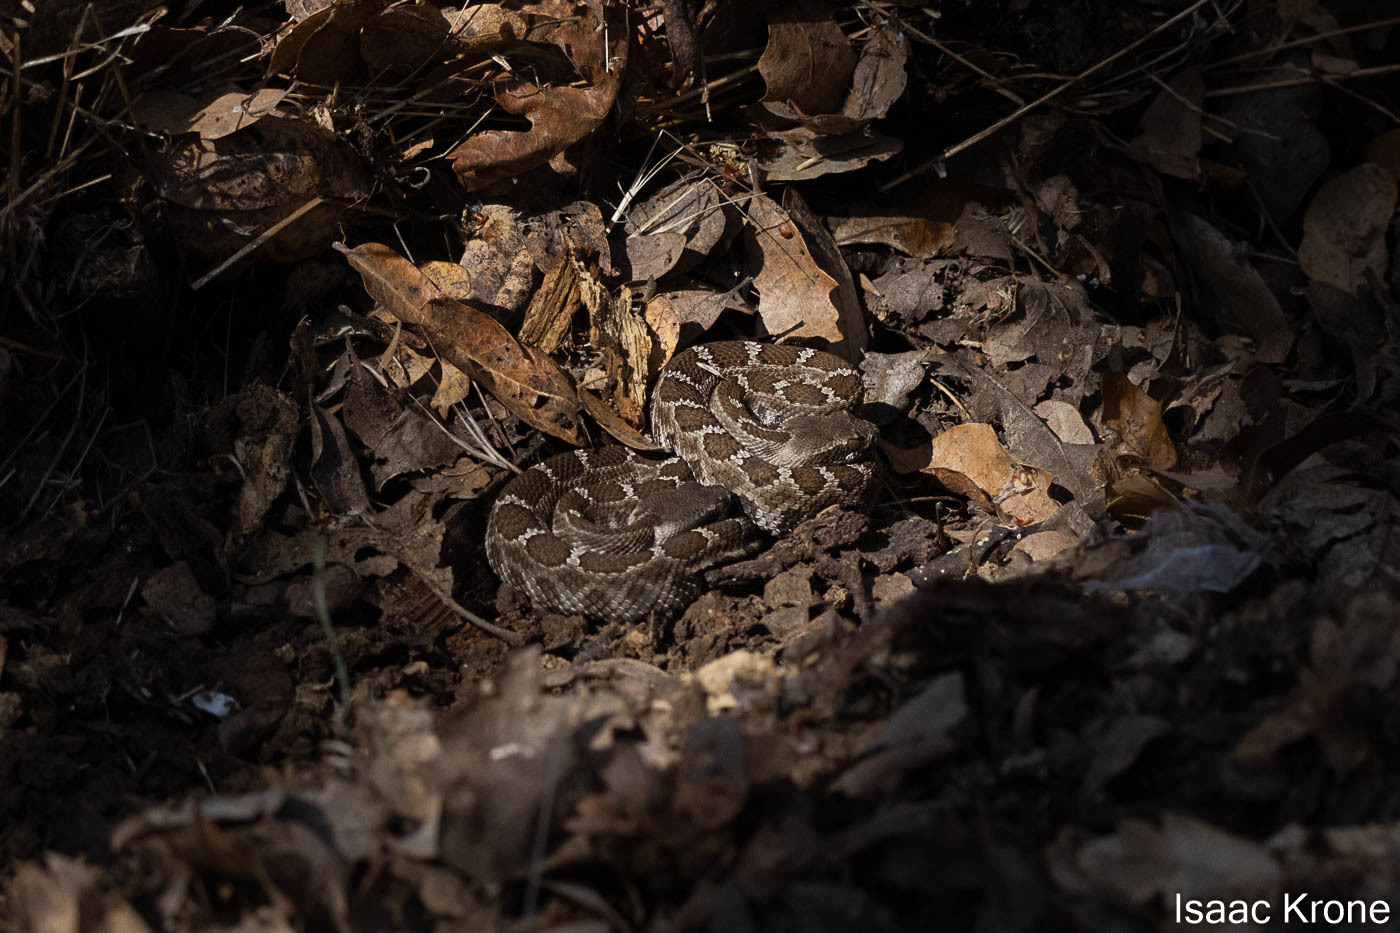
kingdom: Animalia
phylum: Chordata
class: Squamata
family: Viperidae
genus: Crotalus
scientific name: Crotalus oreganus
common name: Abyssus
